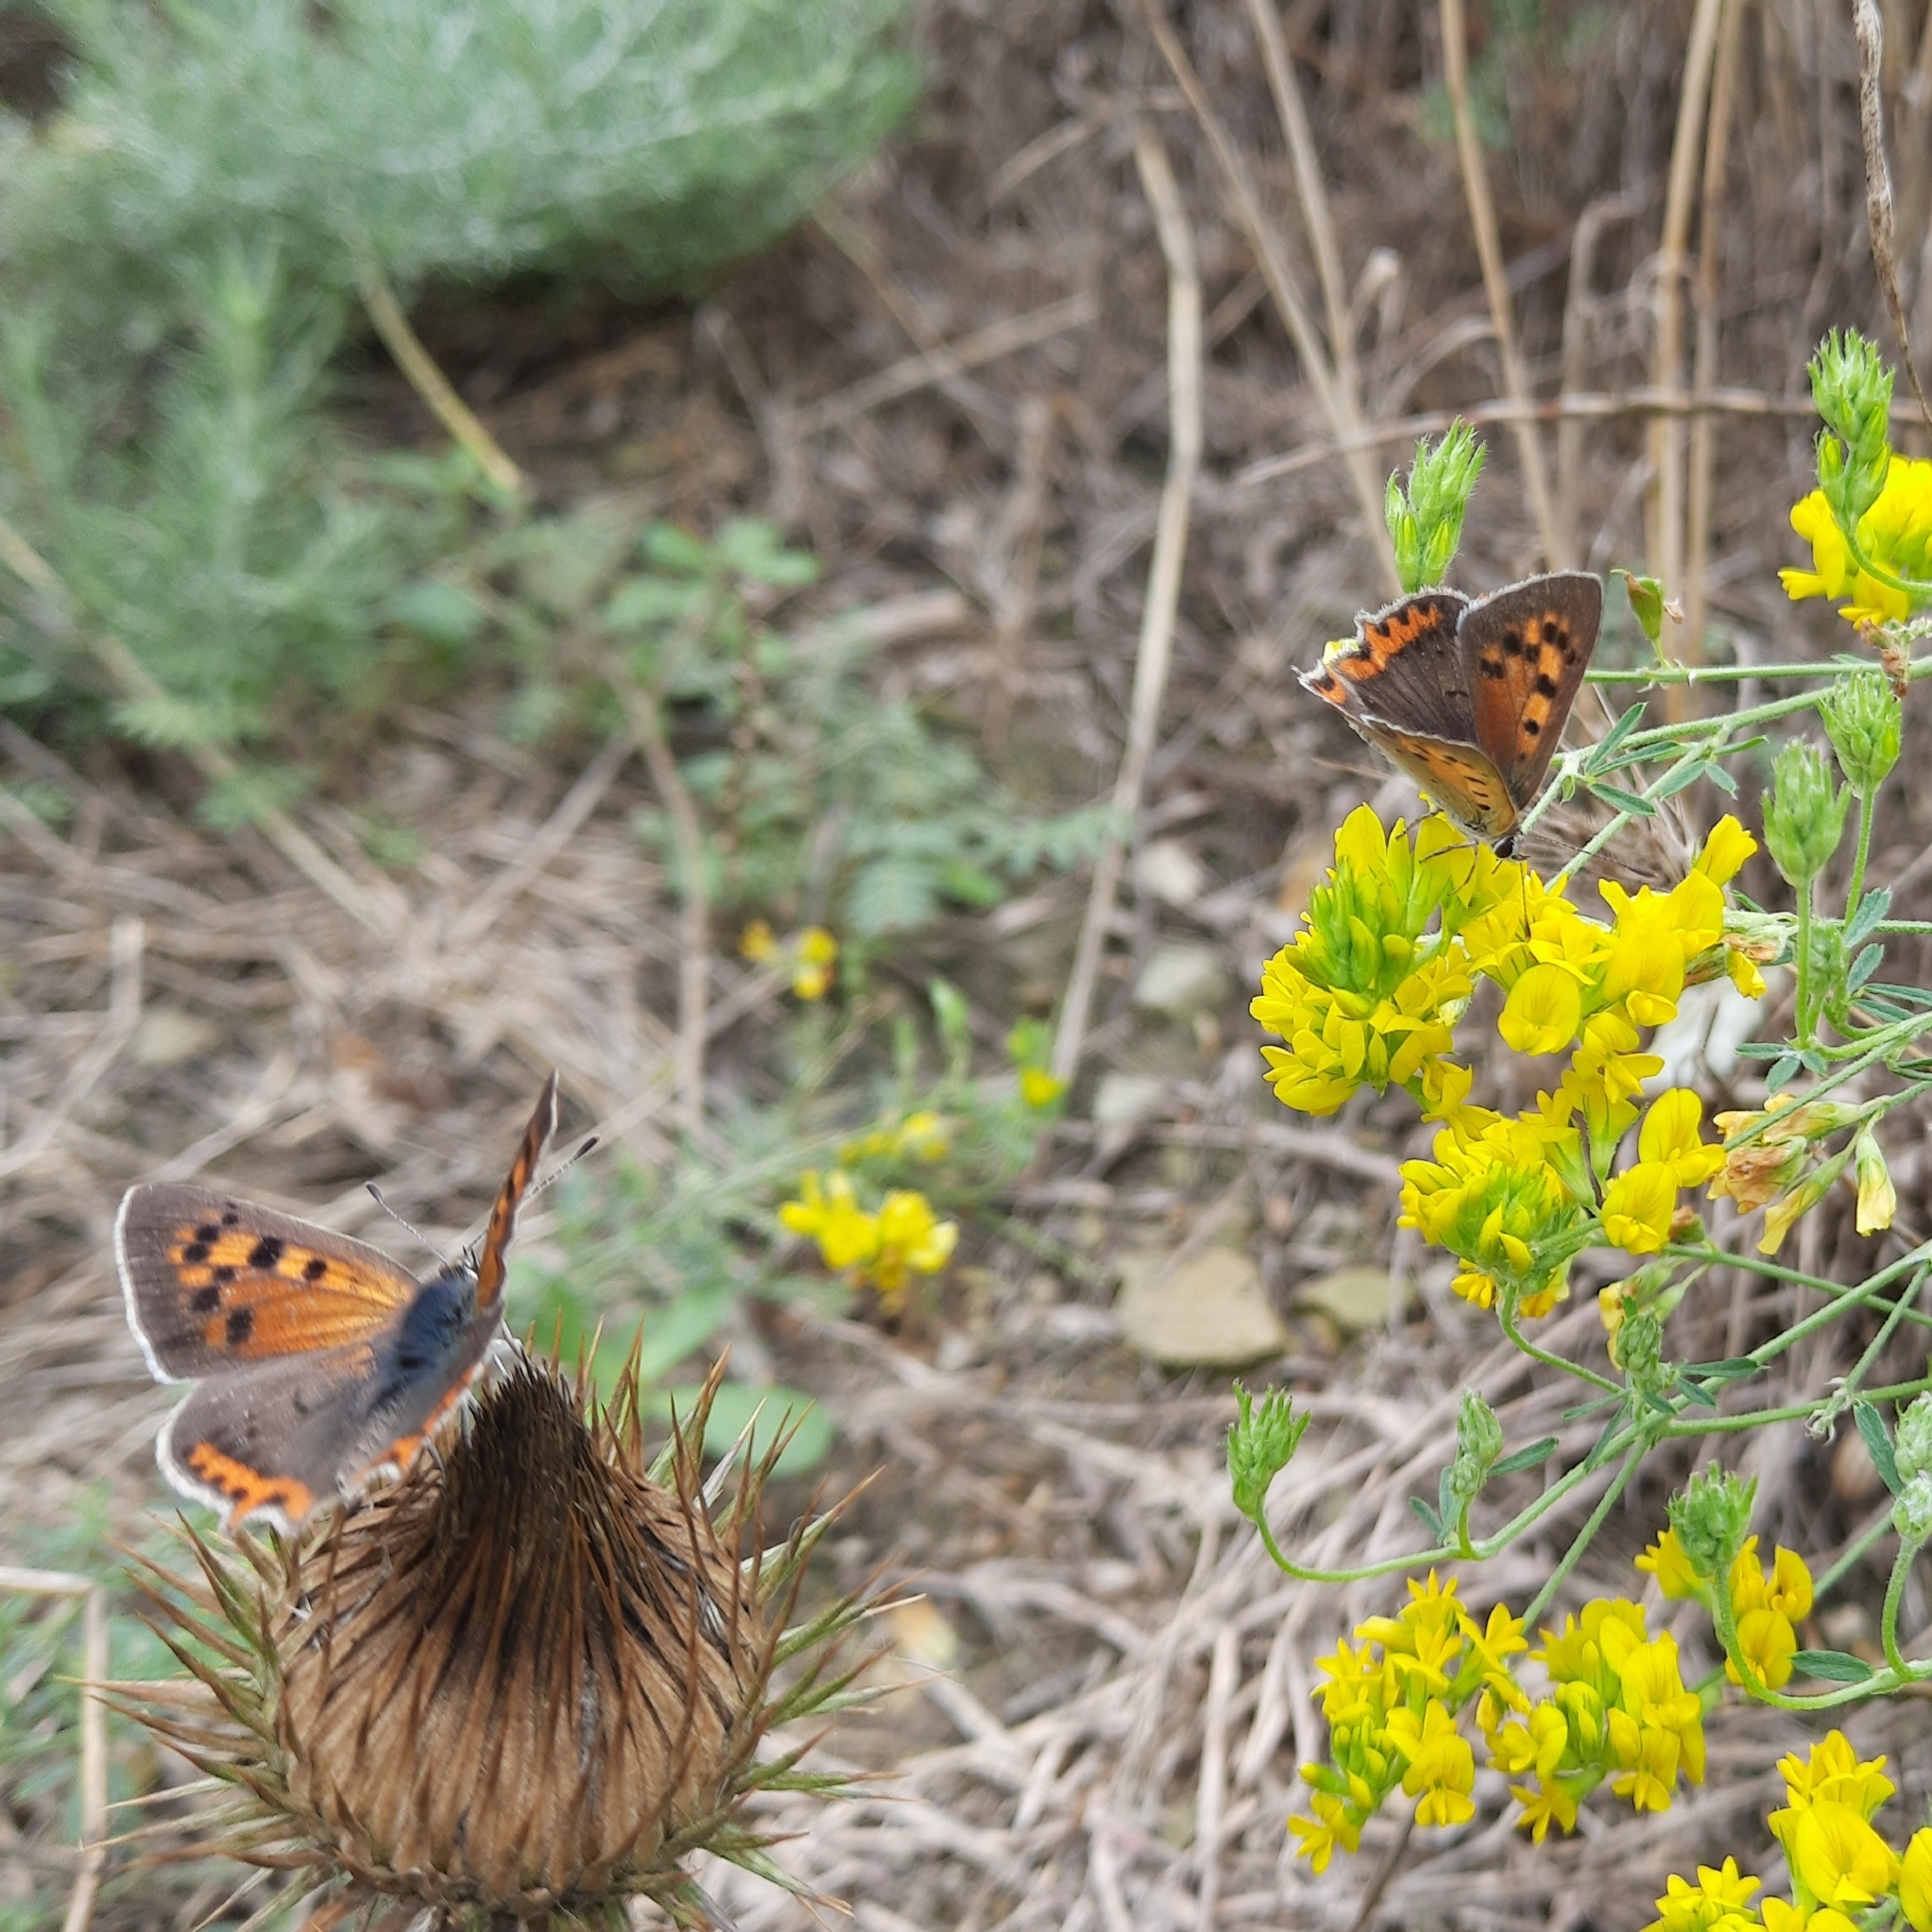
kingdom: Animalia
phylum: Arthropoda
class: Insecta
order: Lepidoptera
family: Lycaenidae
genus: Lycaena
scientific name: Lycaena phlaeas
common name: Small copper
